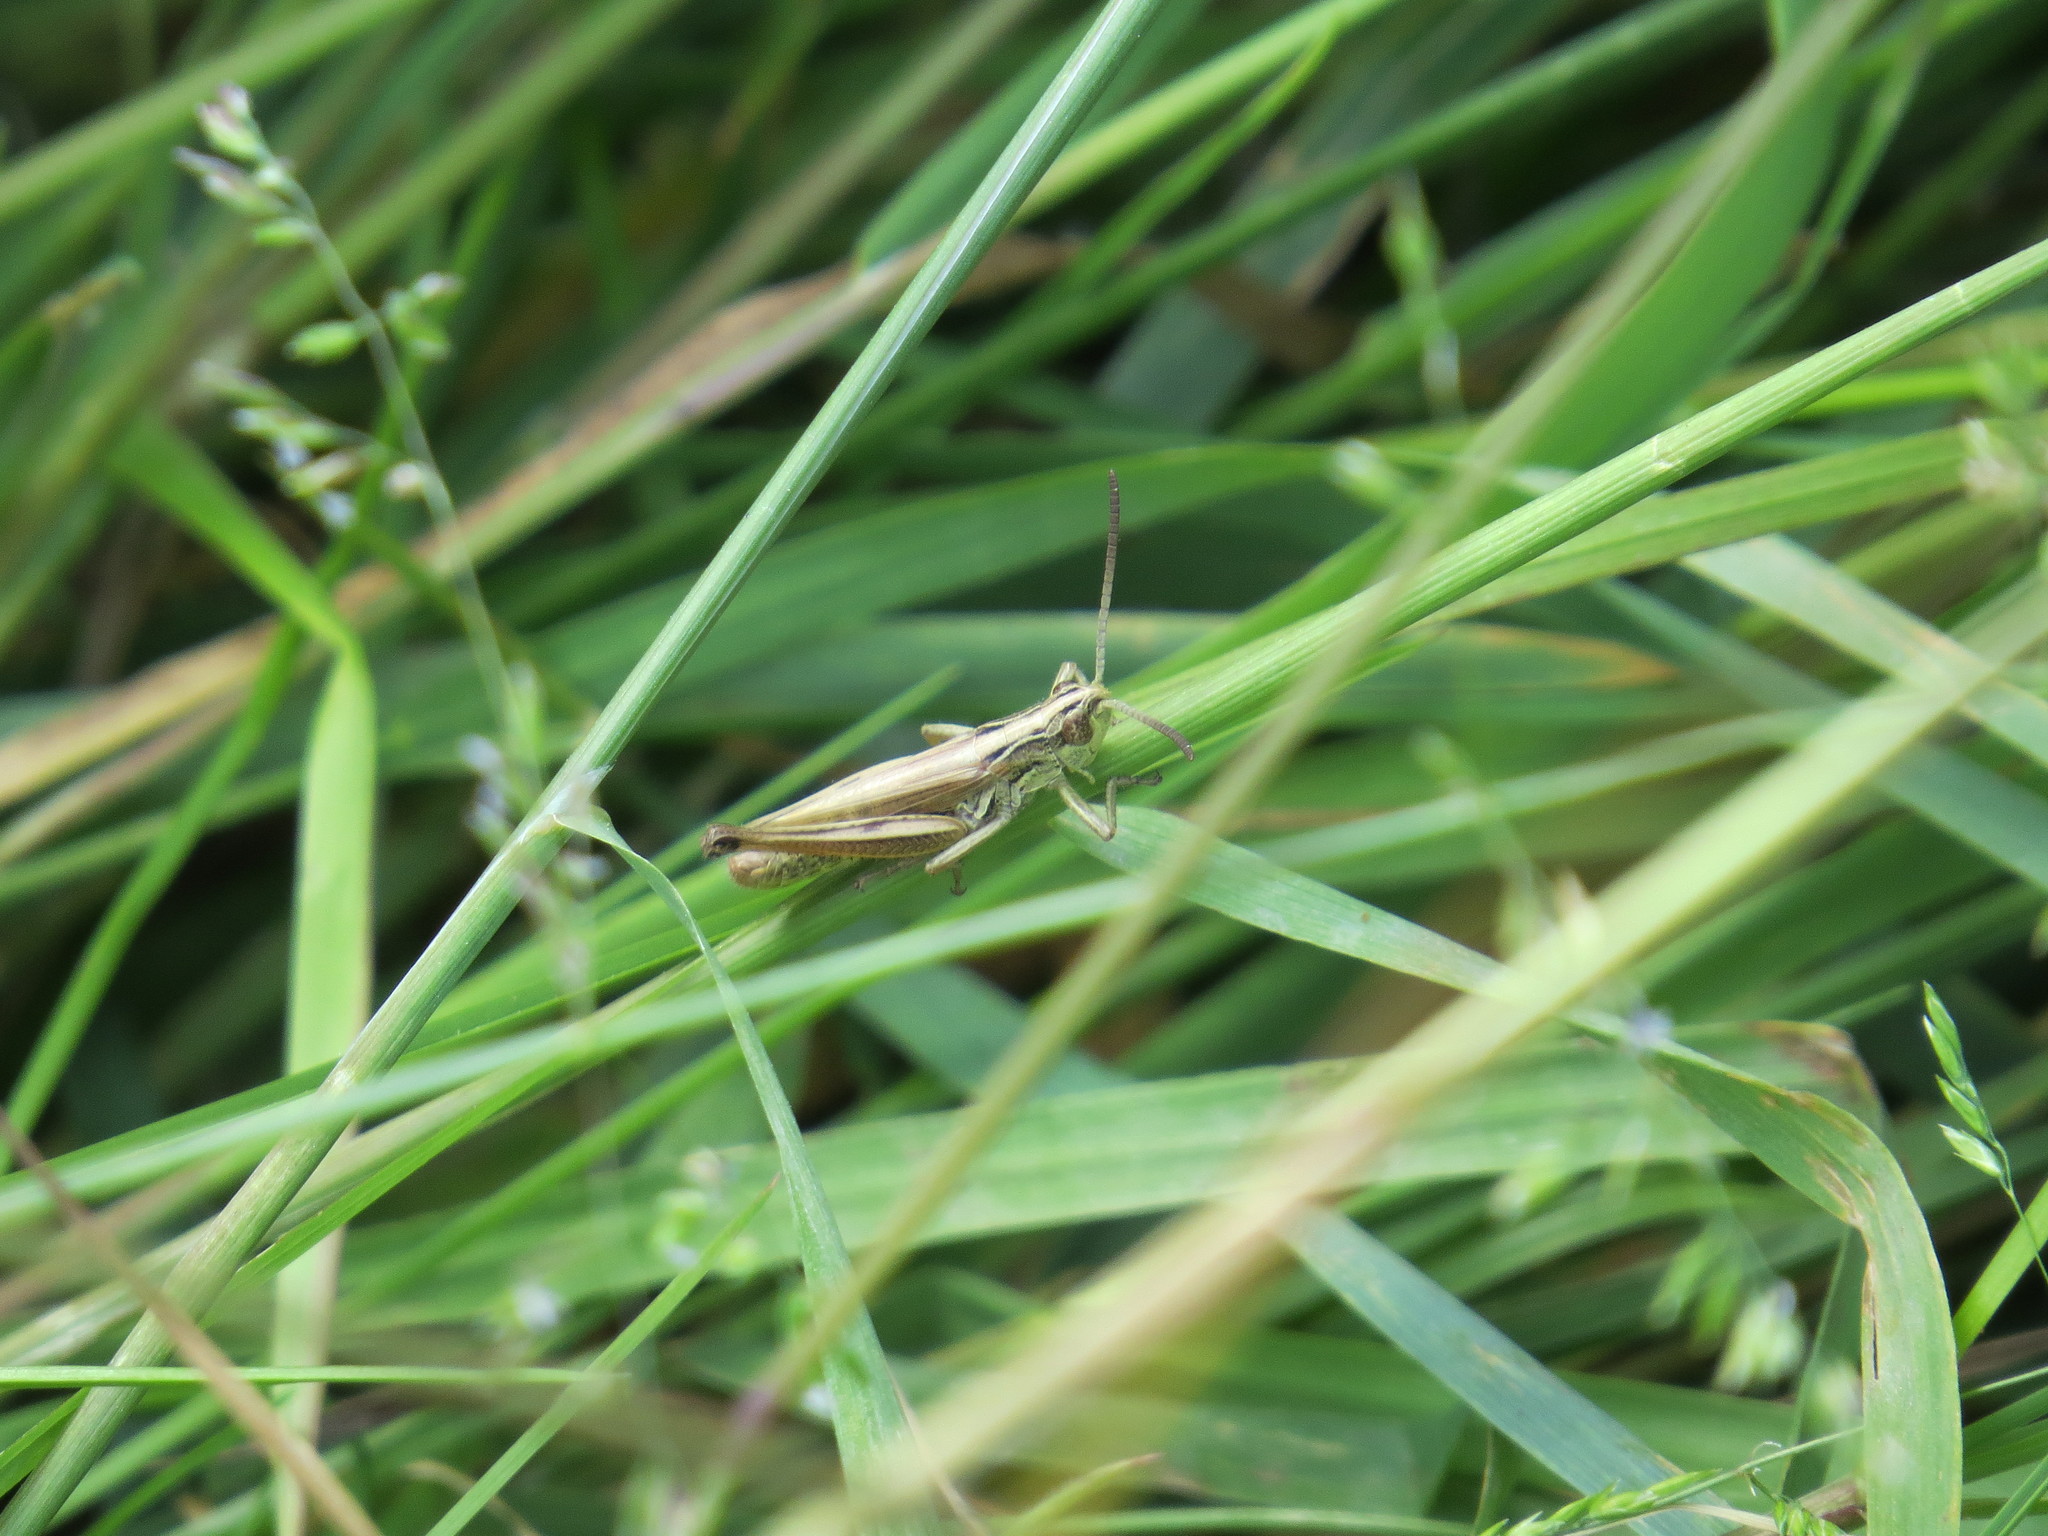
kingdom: Animalia
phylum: Arthropoda
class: Insecta
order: Orthoptera
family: Acrididae
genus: Pseudochorthippus
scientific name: Pseudochorthippus parallelus
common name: Meadow grasshopper
